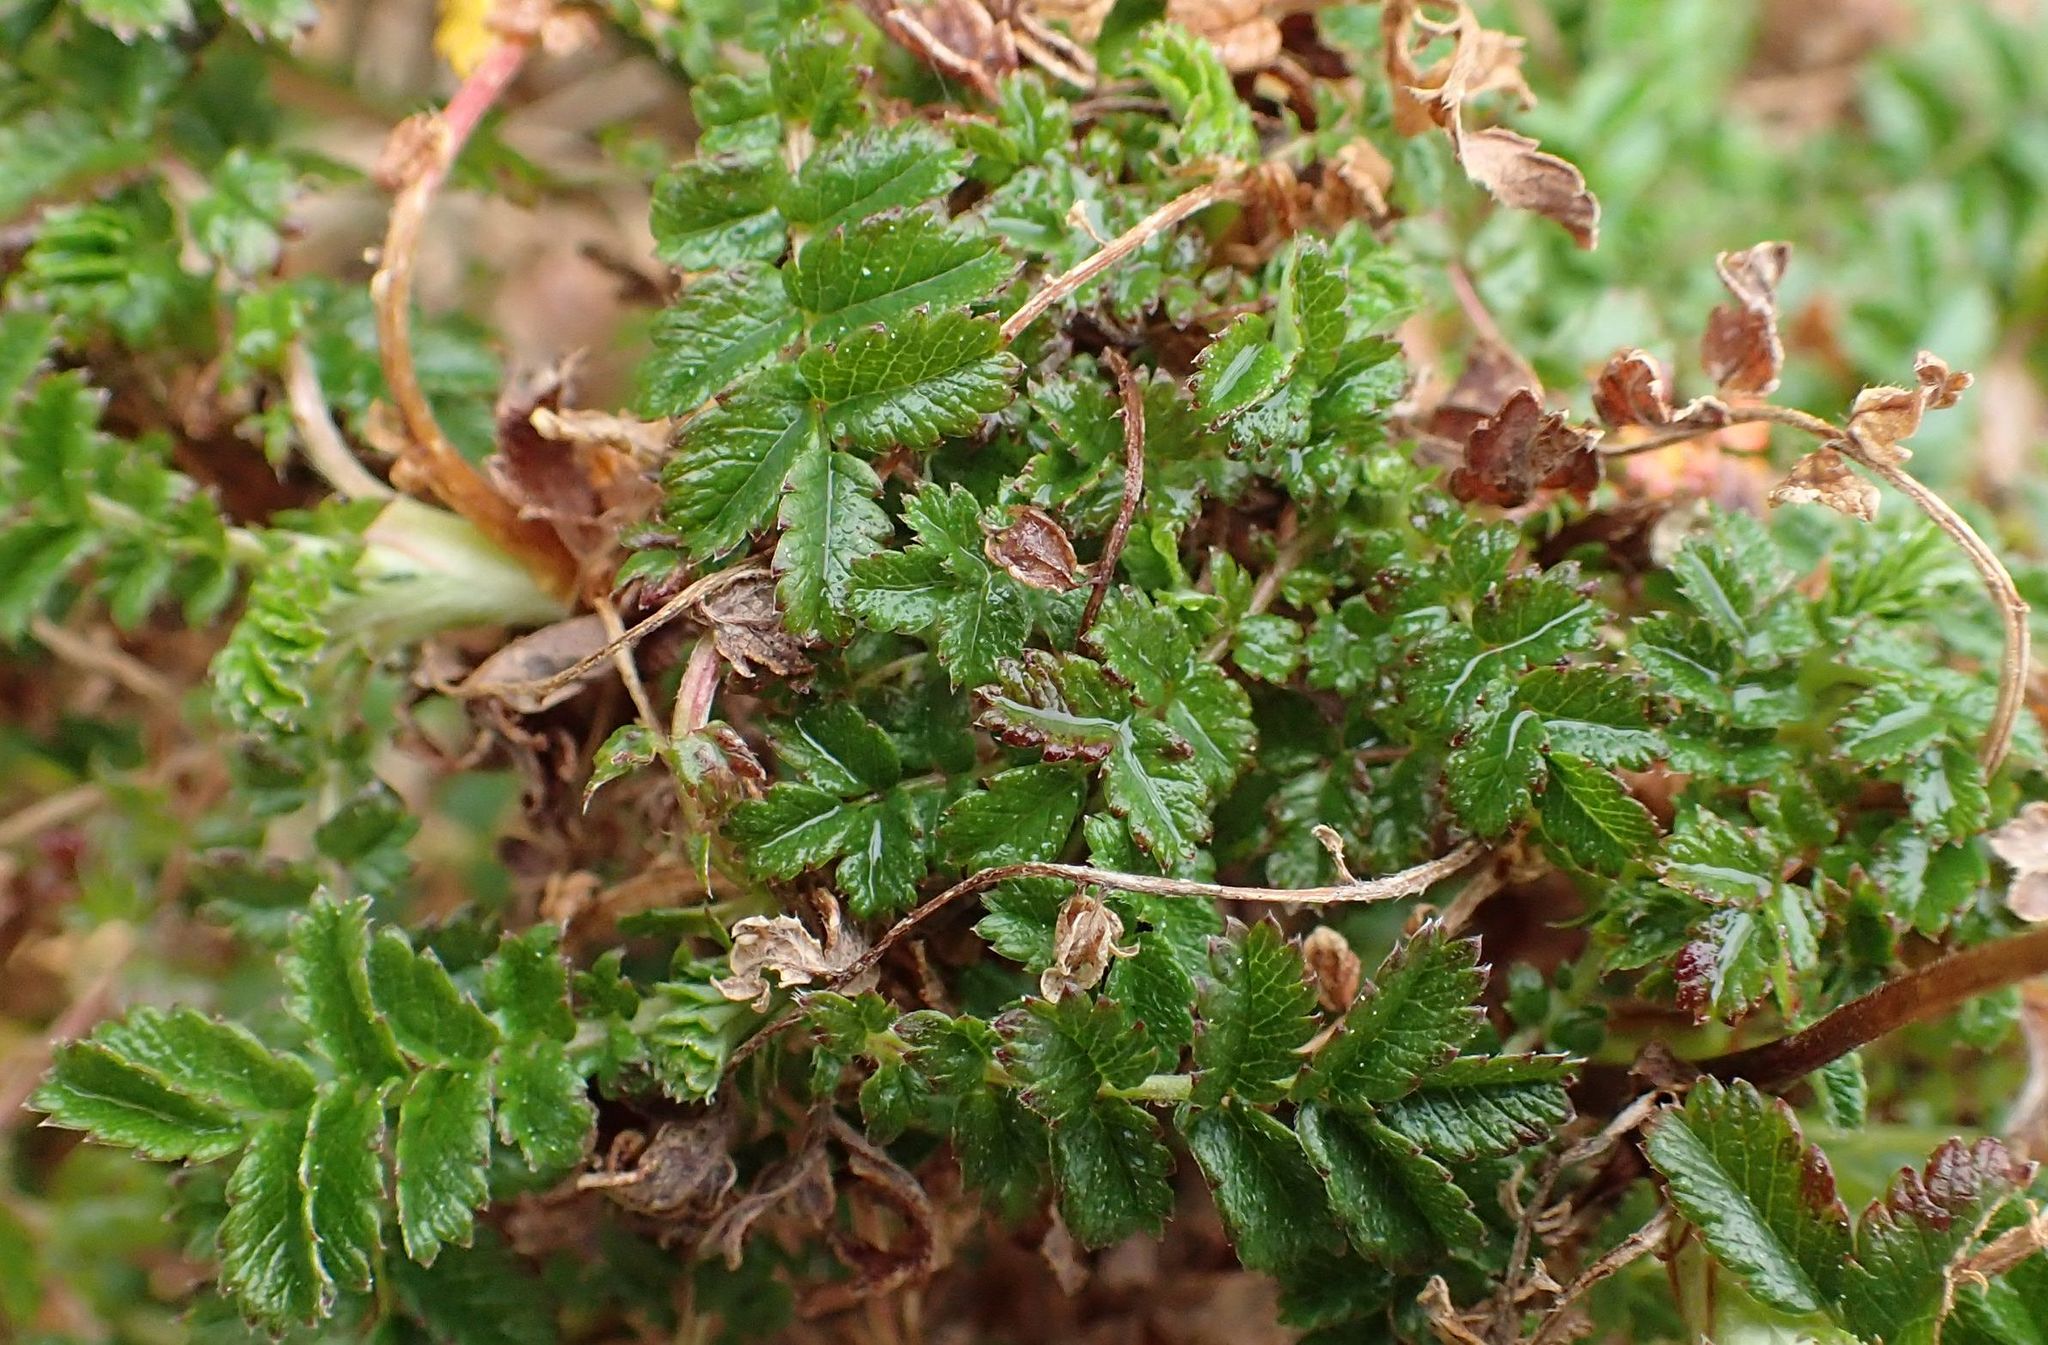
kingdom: Plantae
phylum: Tracheophyta
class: Magnoliopsida
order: Rosales
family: Rosaceae
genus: Acaena
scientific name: Acaena novae-zelandiae
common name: Pirri-pirri-bur
